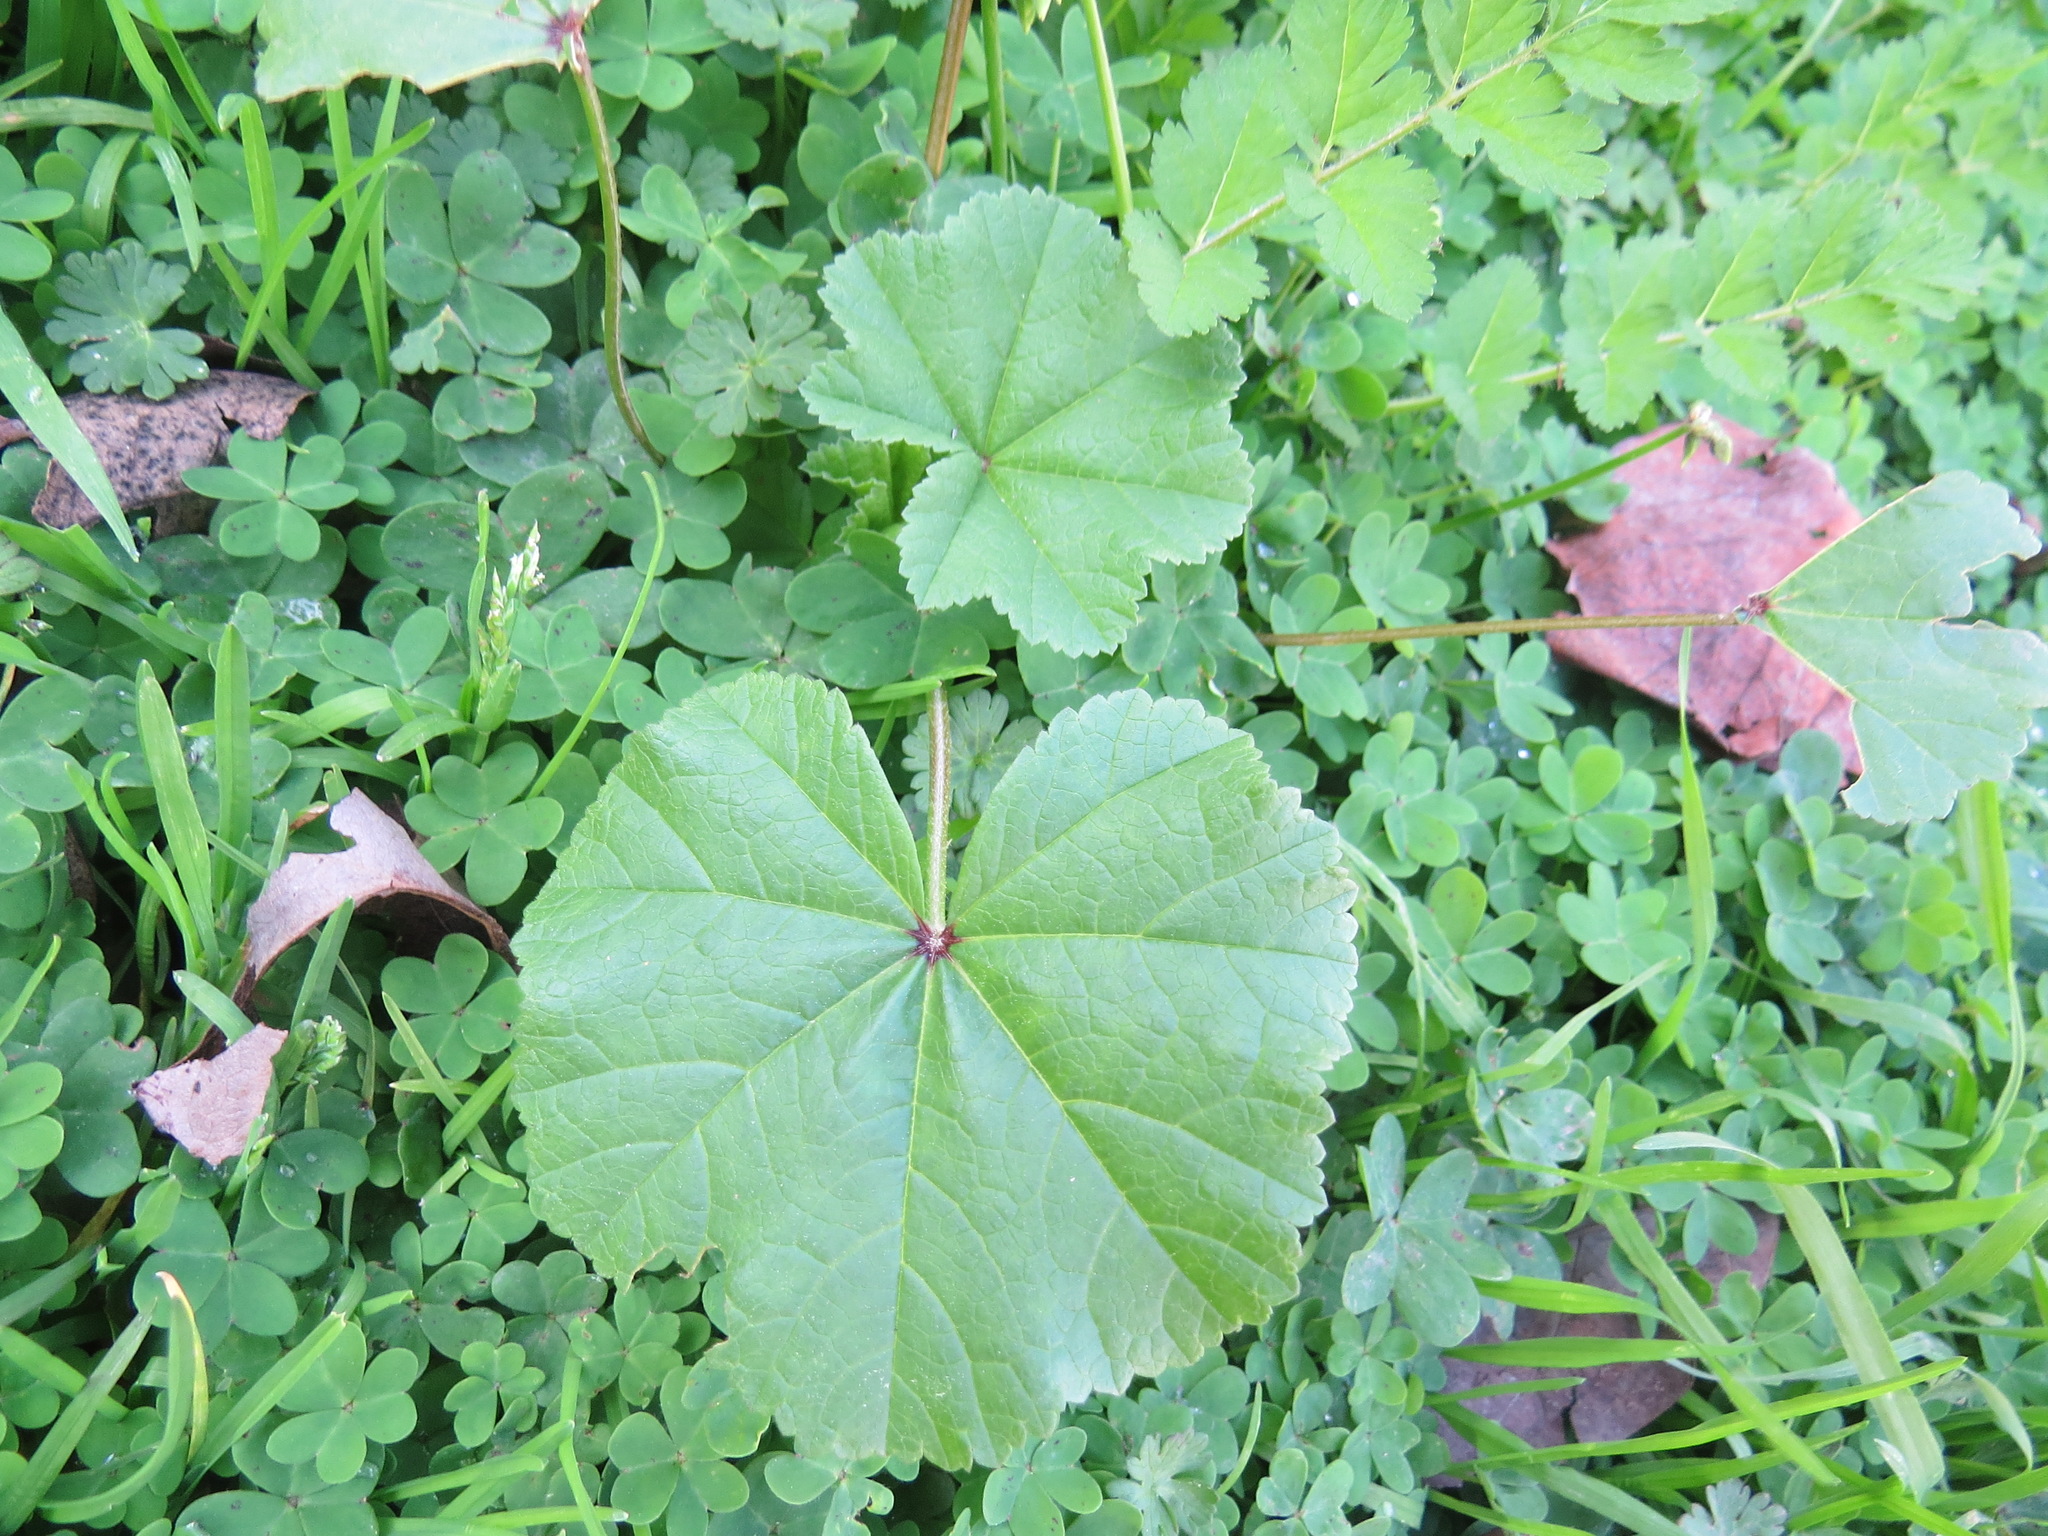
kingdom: Plantae
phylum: Tracheophyta
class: Magnoliopsida
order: Malvales
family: Malvaceae
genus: Malva
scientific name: Malva
